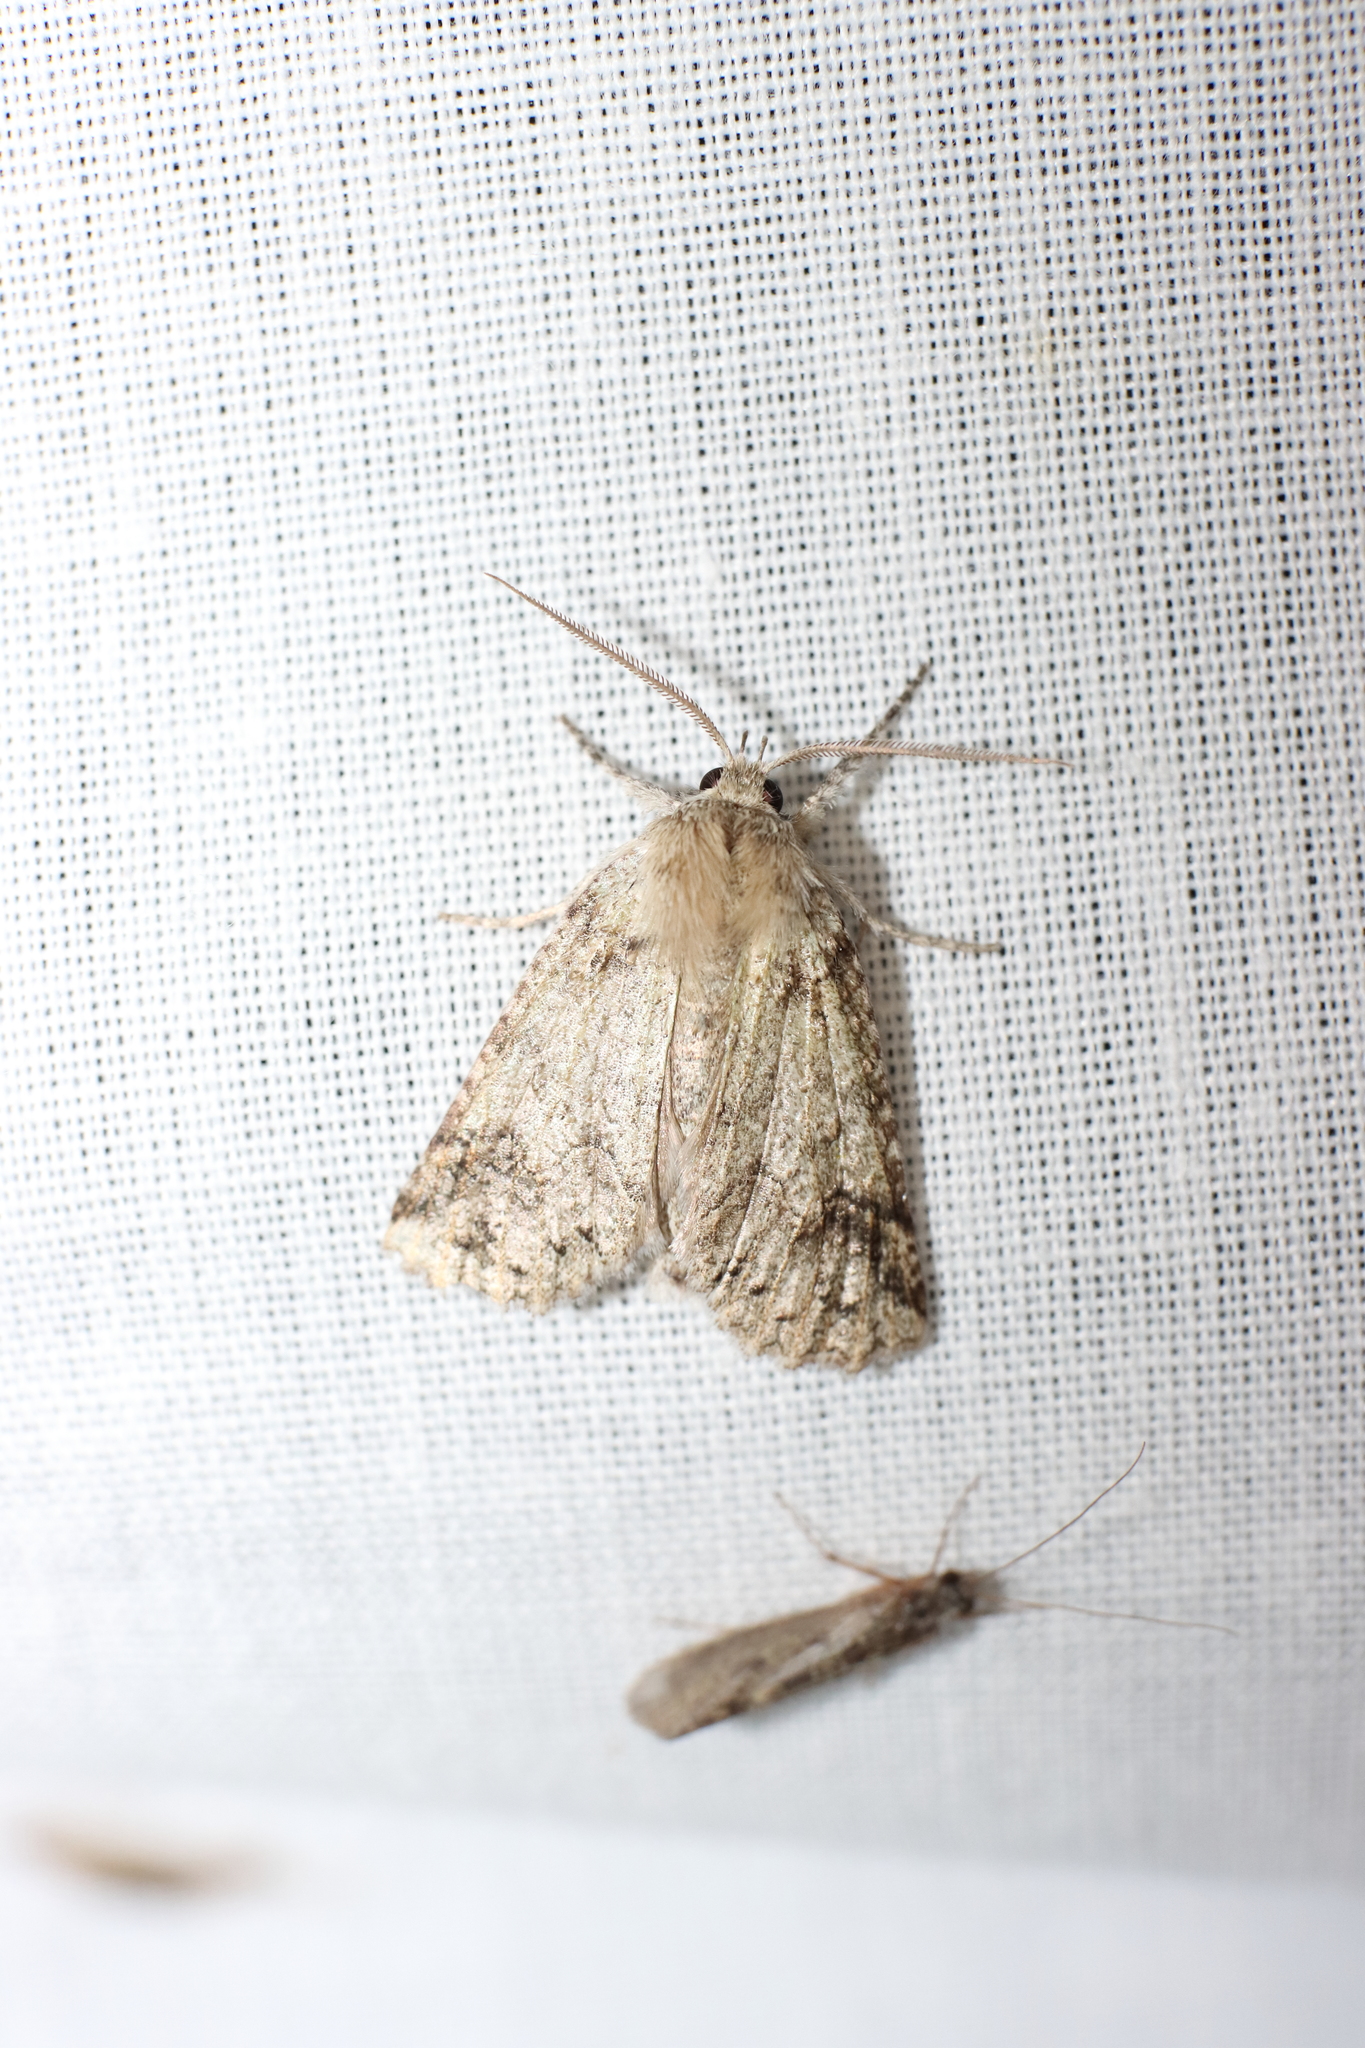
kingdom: Animalia
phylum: Arthropoda
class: Insecta
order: Lepidoptera
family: Geometridae
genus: Declana
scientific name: Declana floccosa
